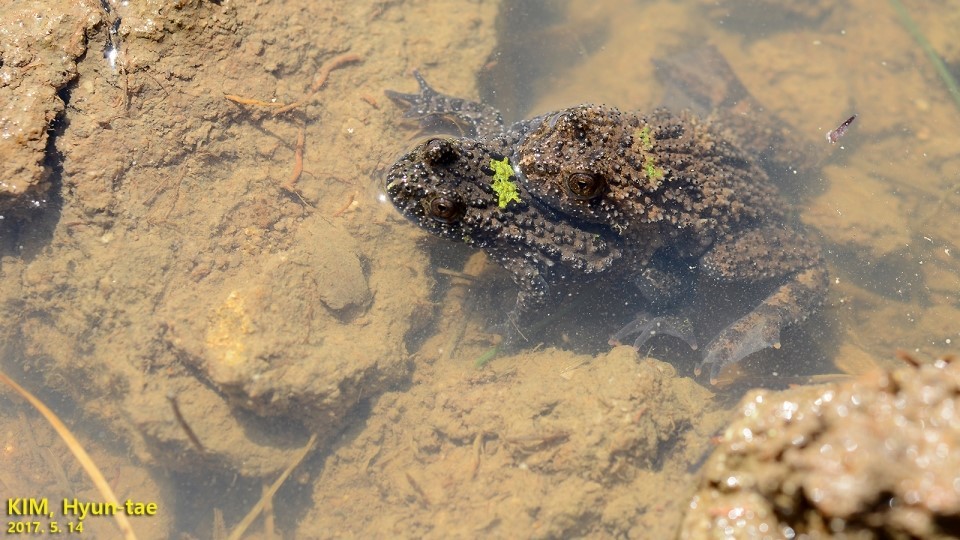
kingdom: Animalia
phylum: Chordata
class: Amphibia
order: Anura
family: Bombinatoridae
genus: Bombina
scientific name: Bombina orientalis
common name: Oriental firebelly toad
